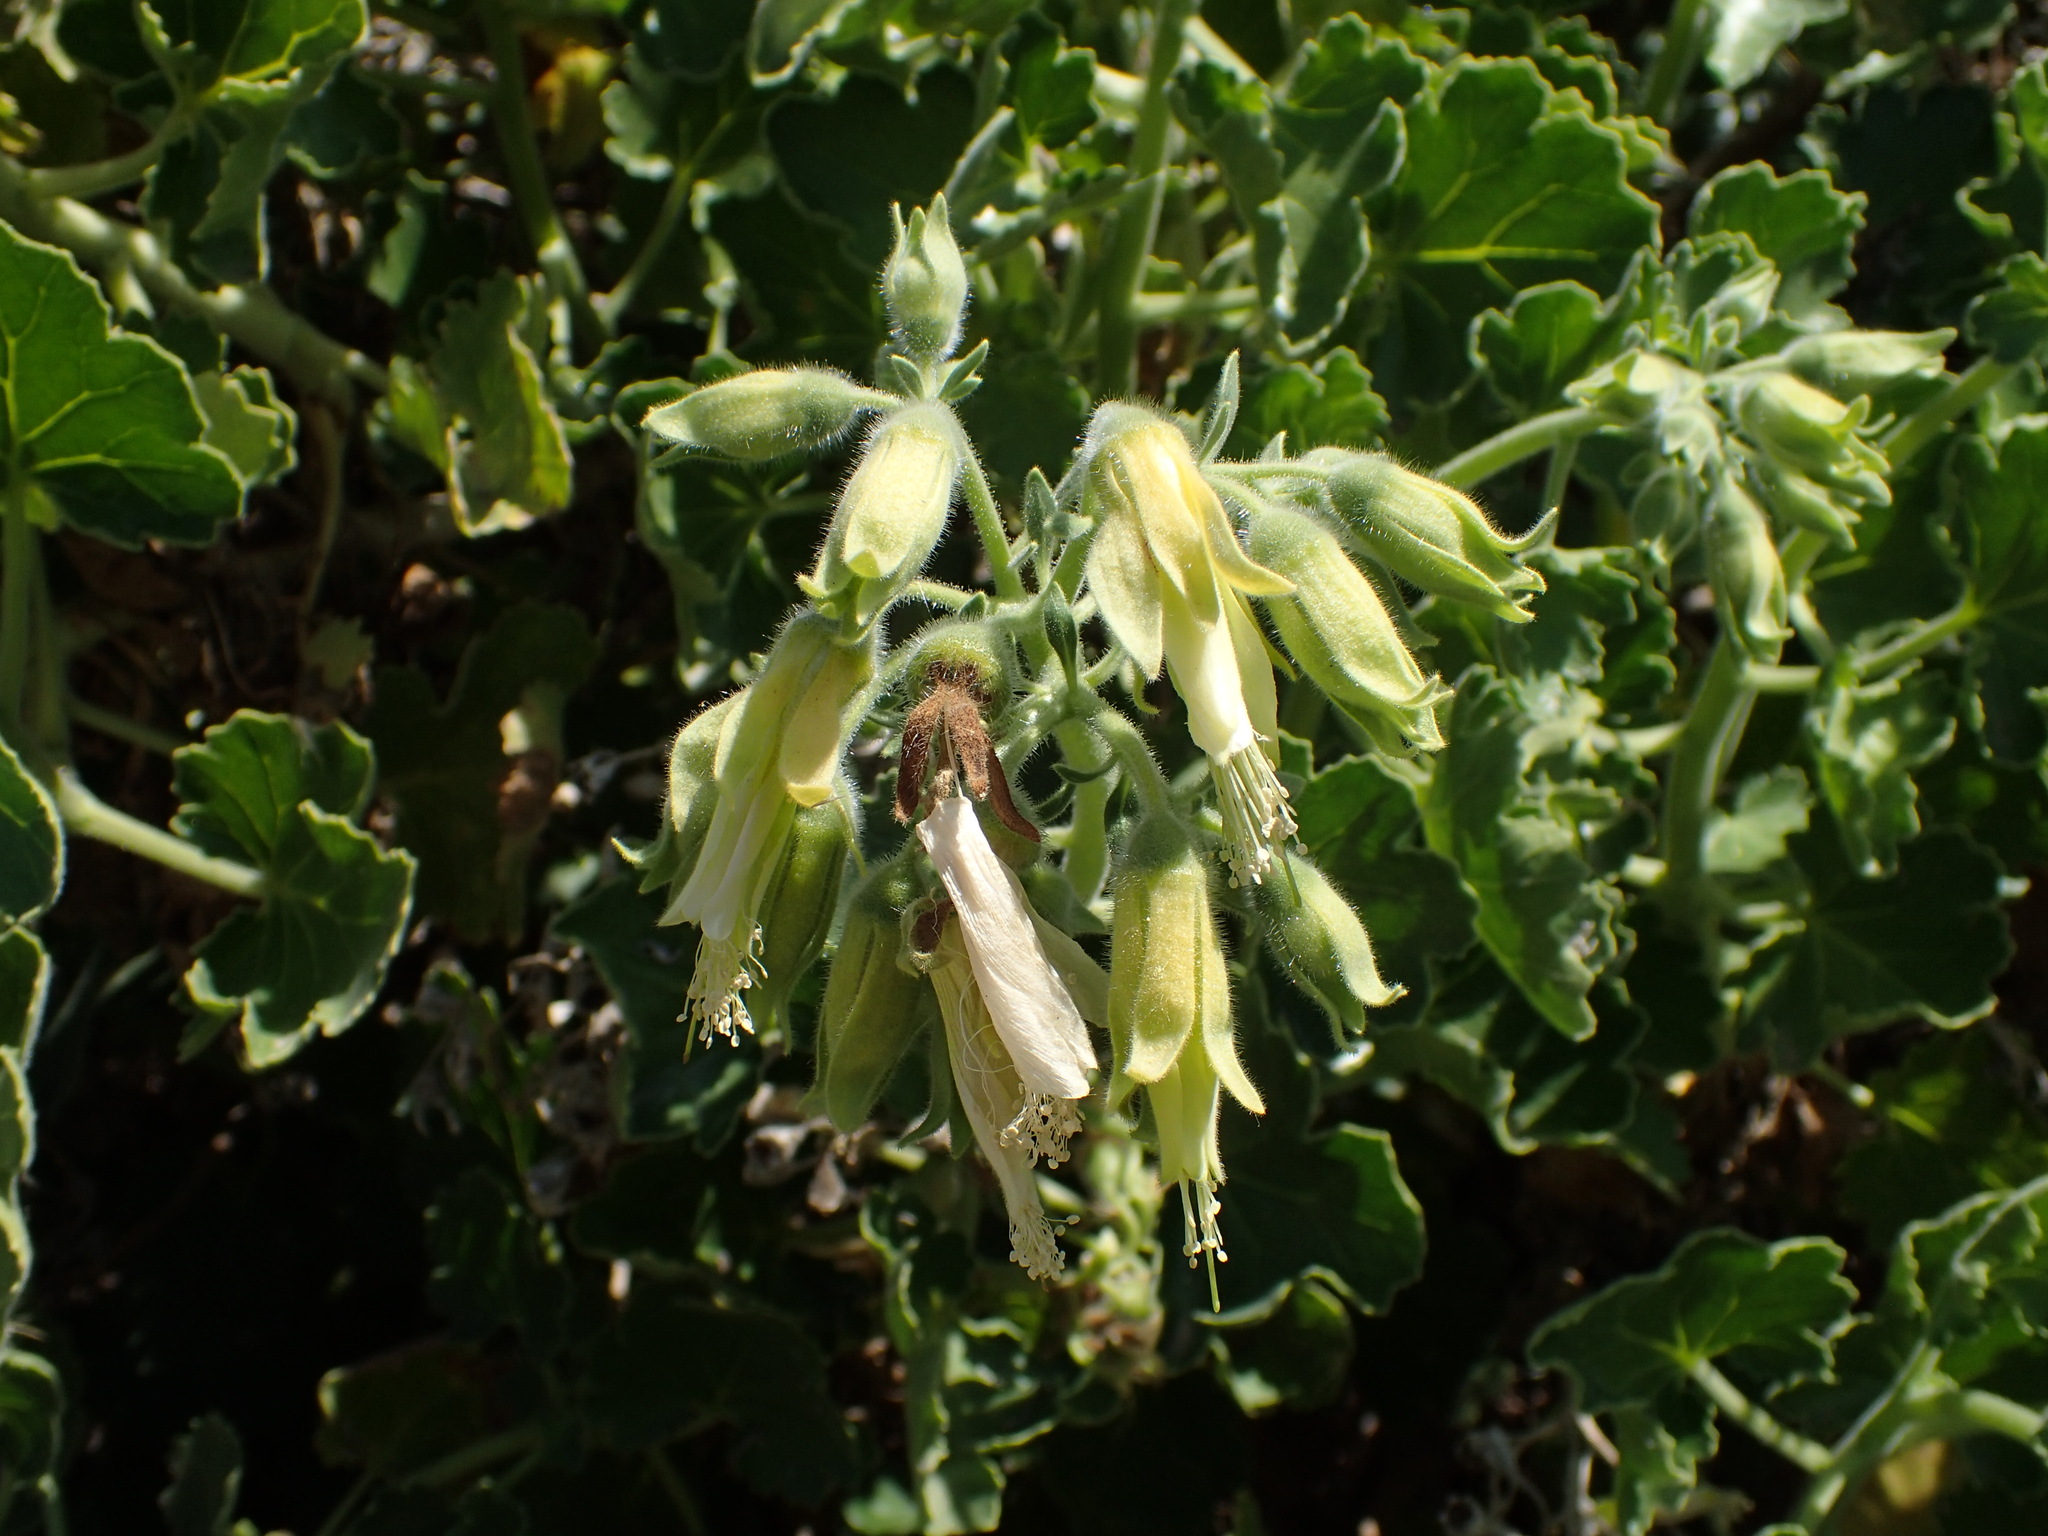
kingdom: Plantae
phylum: Tracheophyta
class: Magnoliopsida
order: Cornales
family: Loasaceae
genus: Eucnide
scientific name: Eucnide cordata
